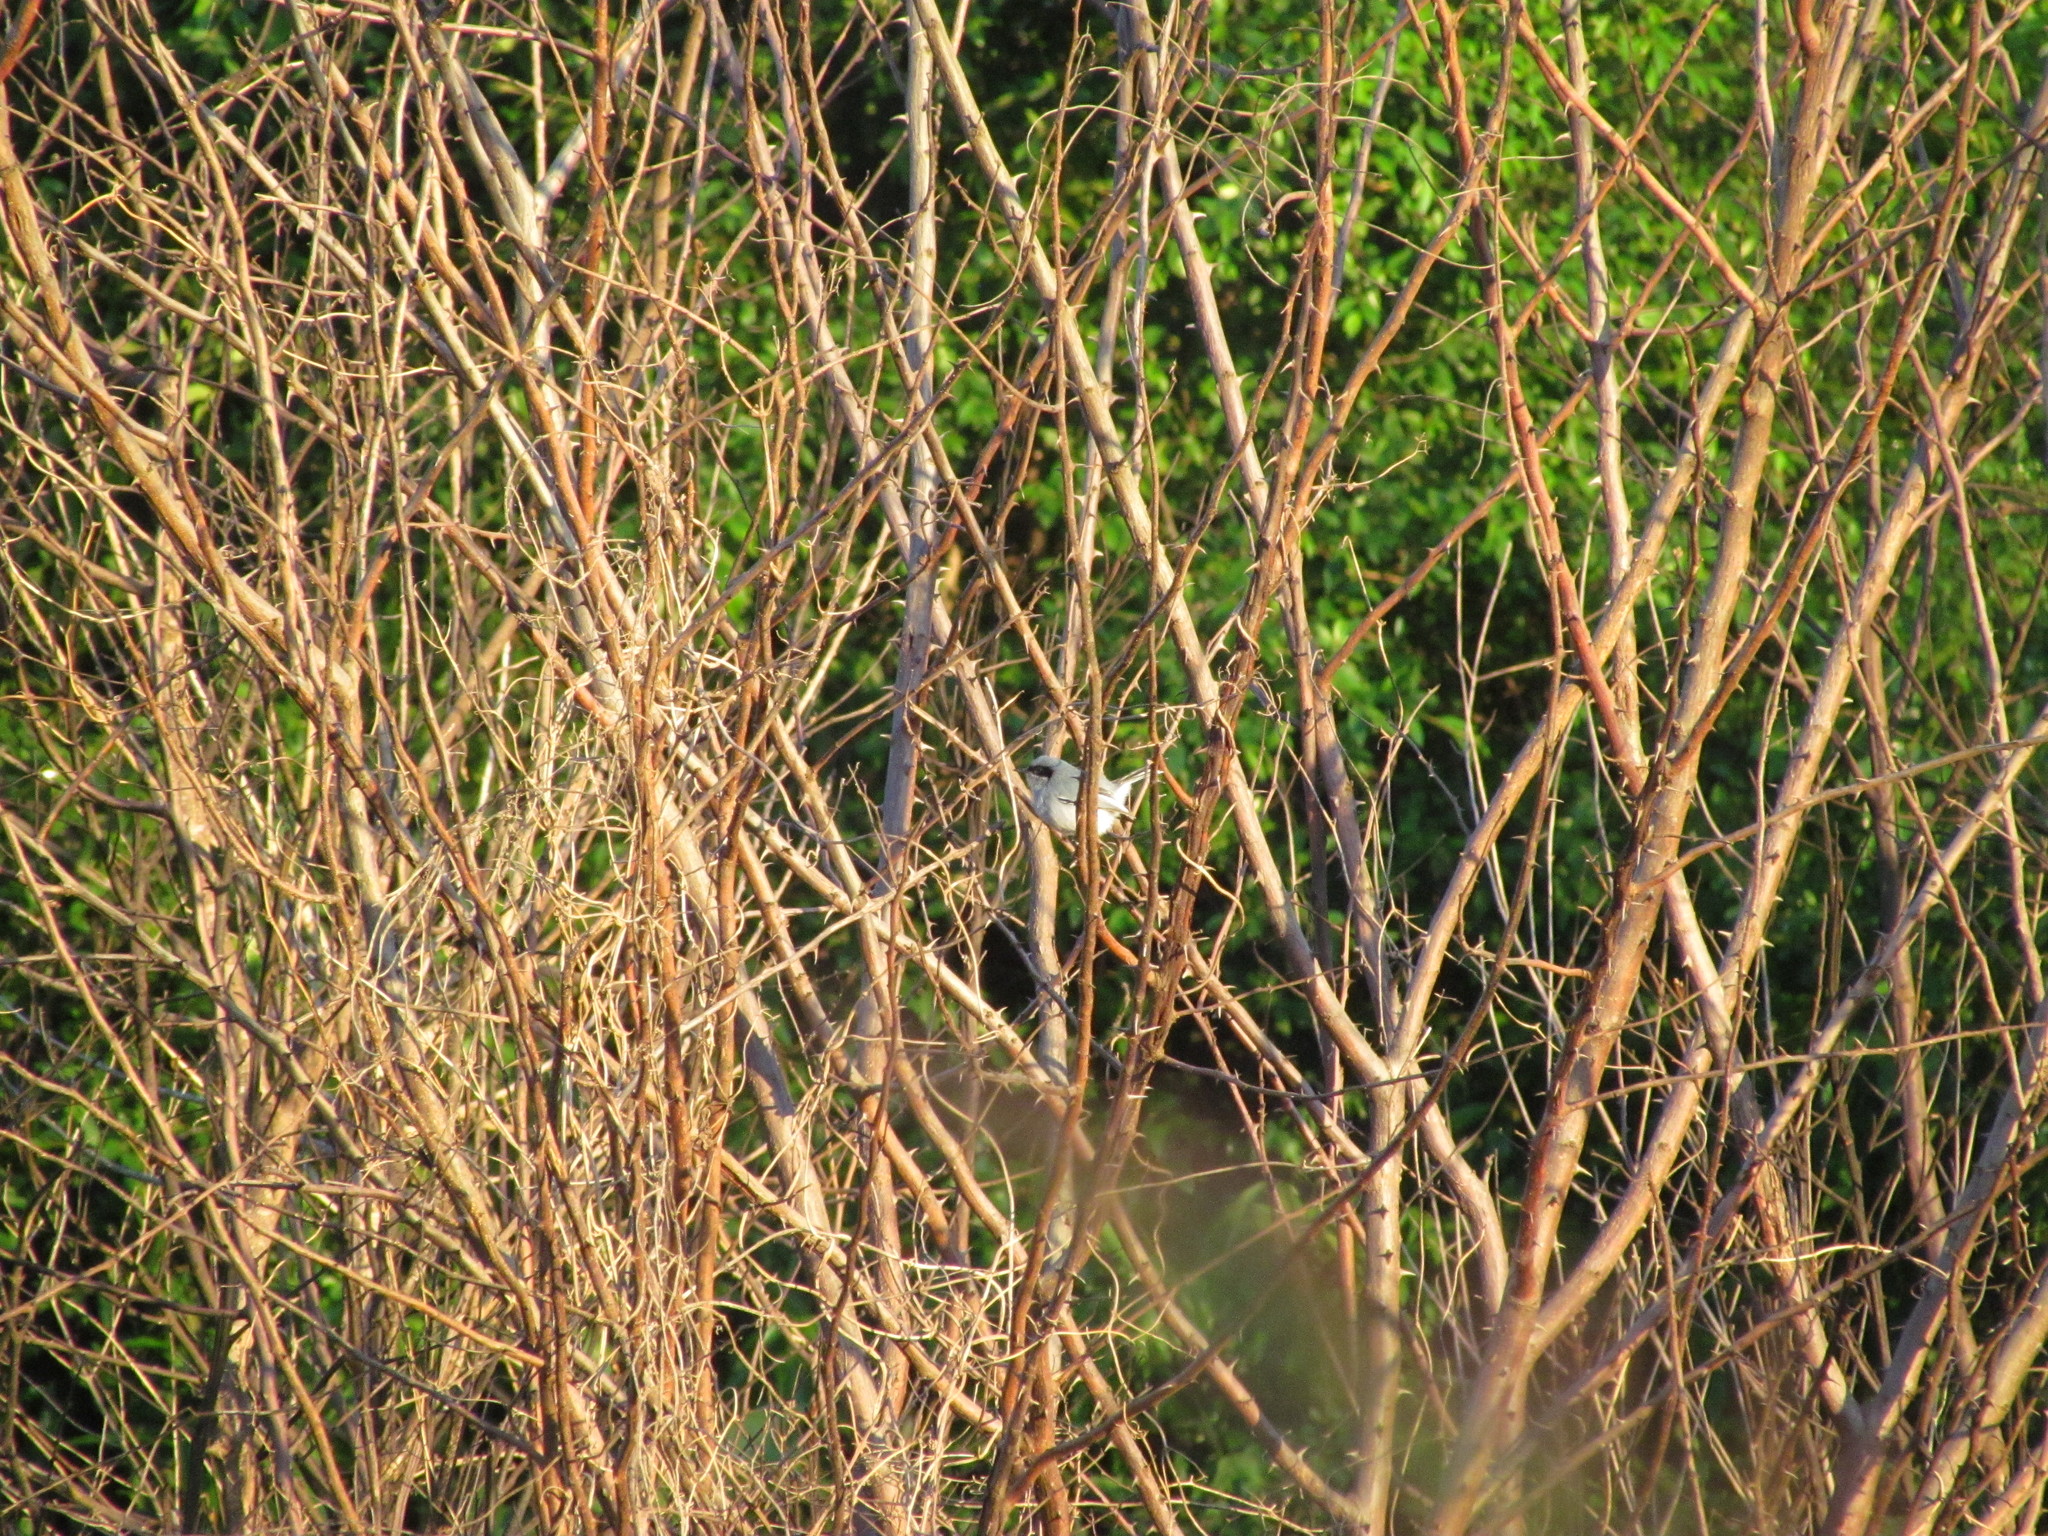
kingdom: Animalia
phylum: Chordata
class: Aves
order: Passeriformes
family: Polioptilidae
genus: Polioptila
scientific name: Polioptila dumicola
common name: Masked gnatcatcher
